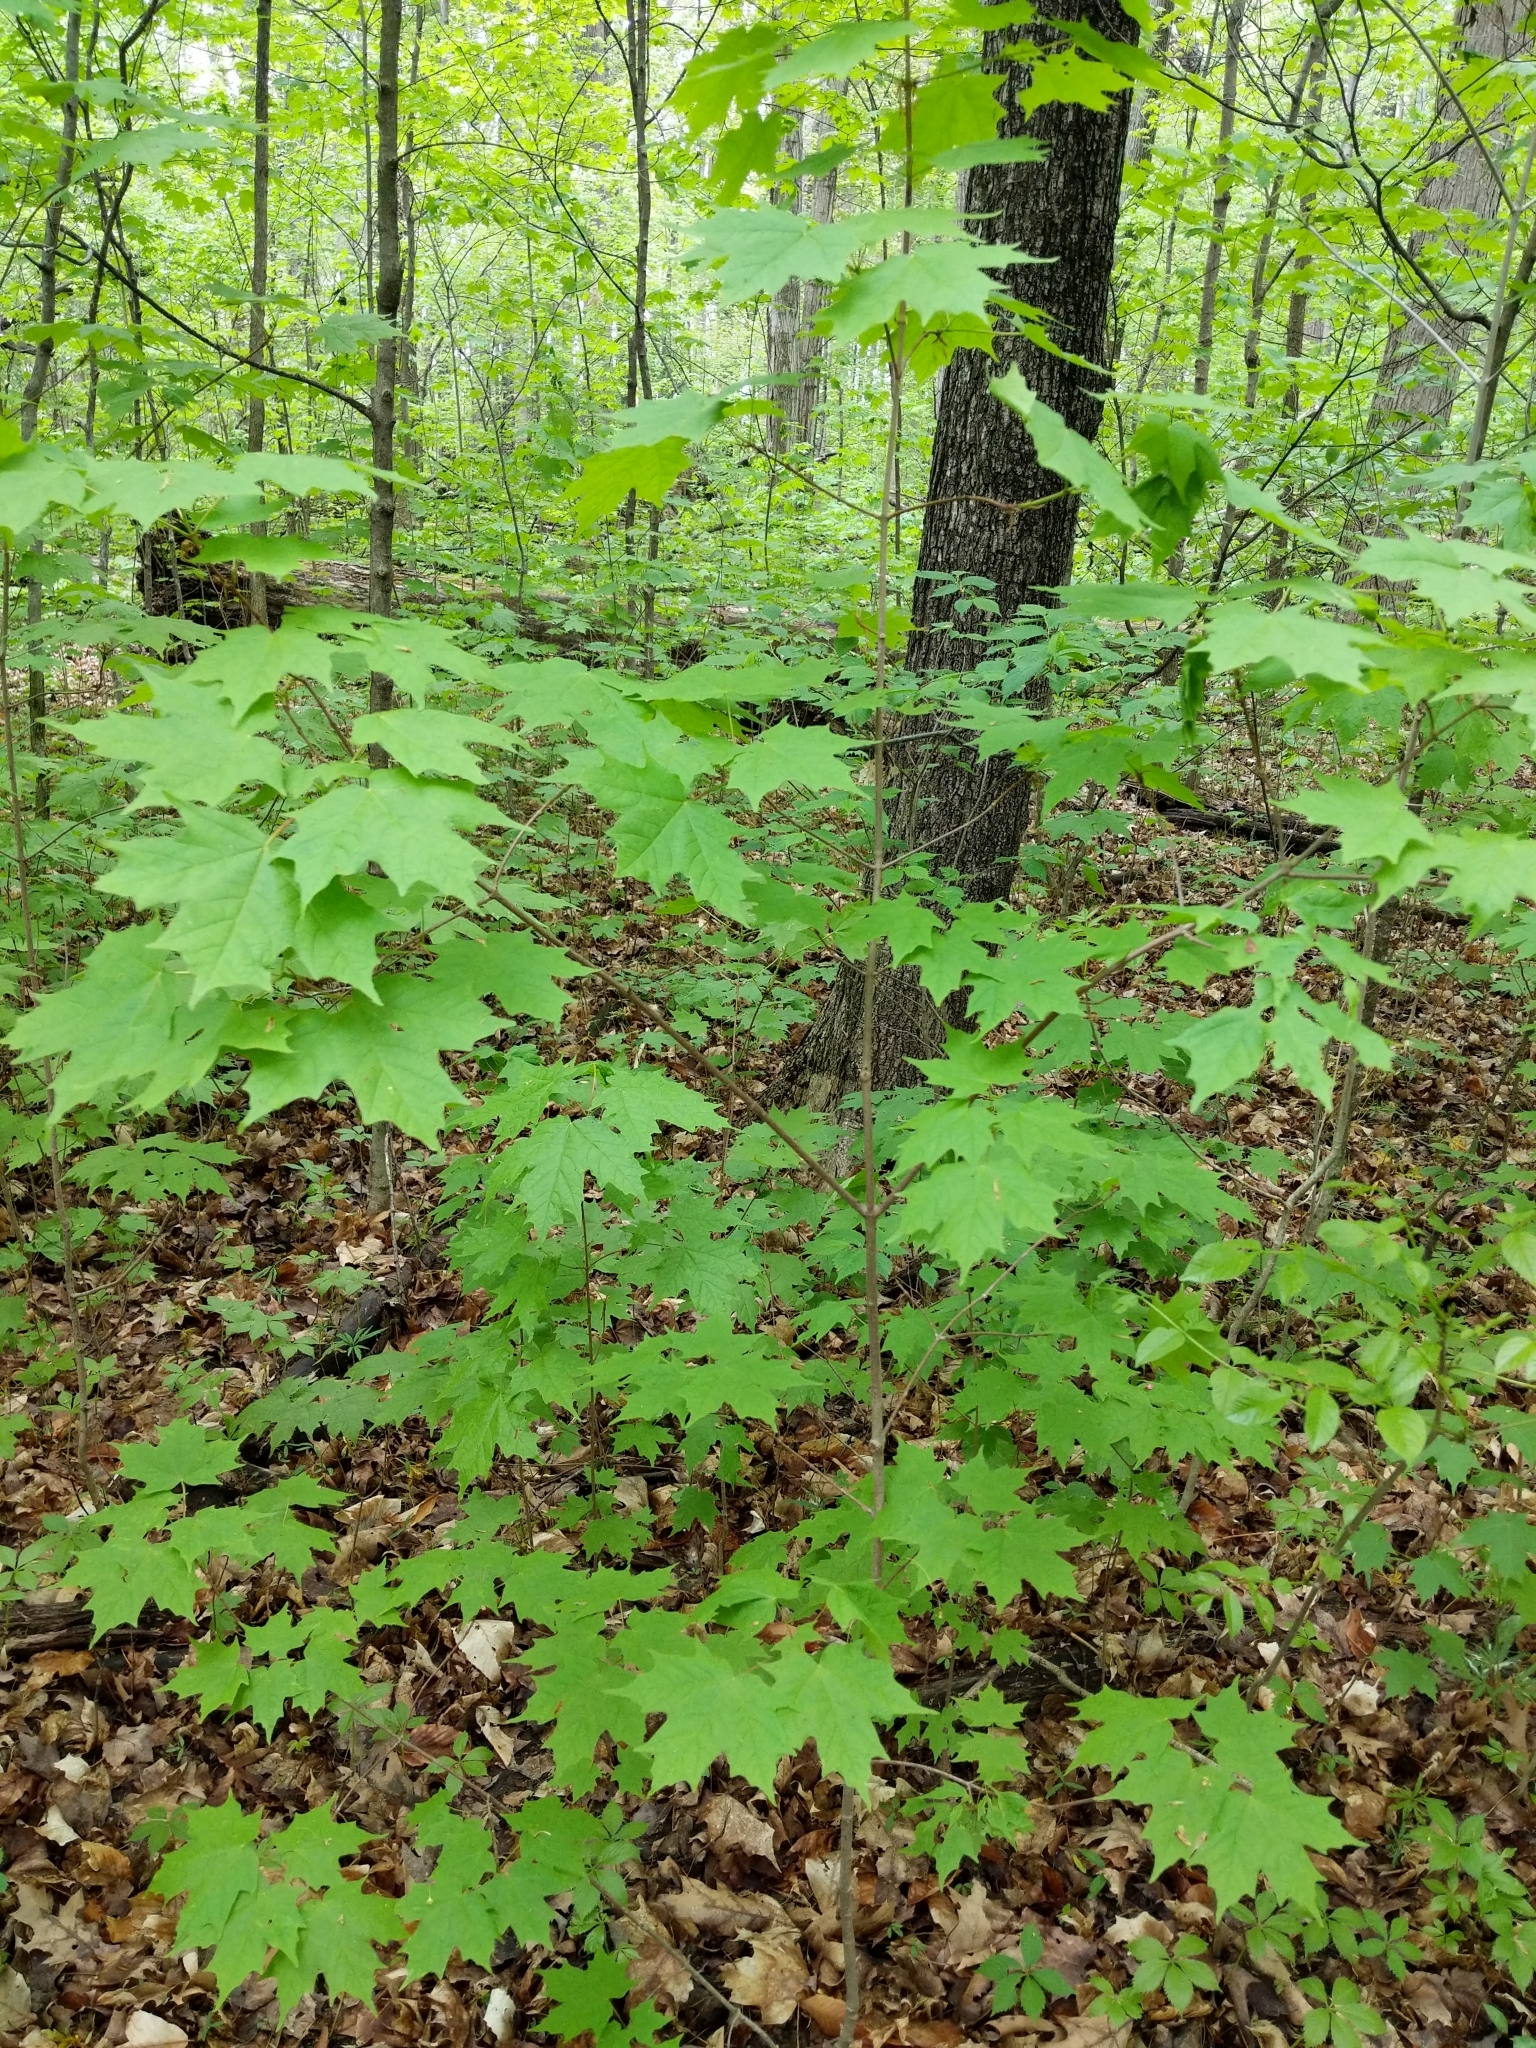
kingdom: Plantae
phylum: Tracheophyta
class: Magnoliopsida
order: Sapindales
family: Sapindaceae
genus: Acer
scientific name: Acer saccharum
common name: Sugar maple
